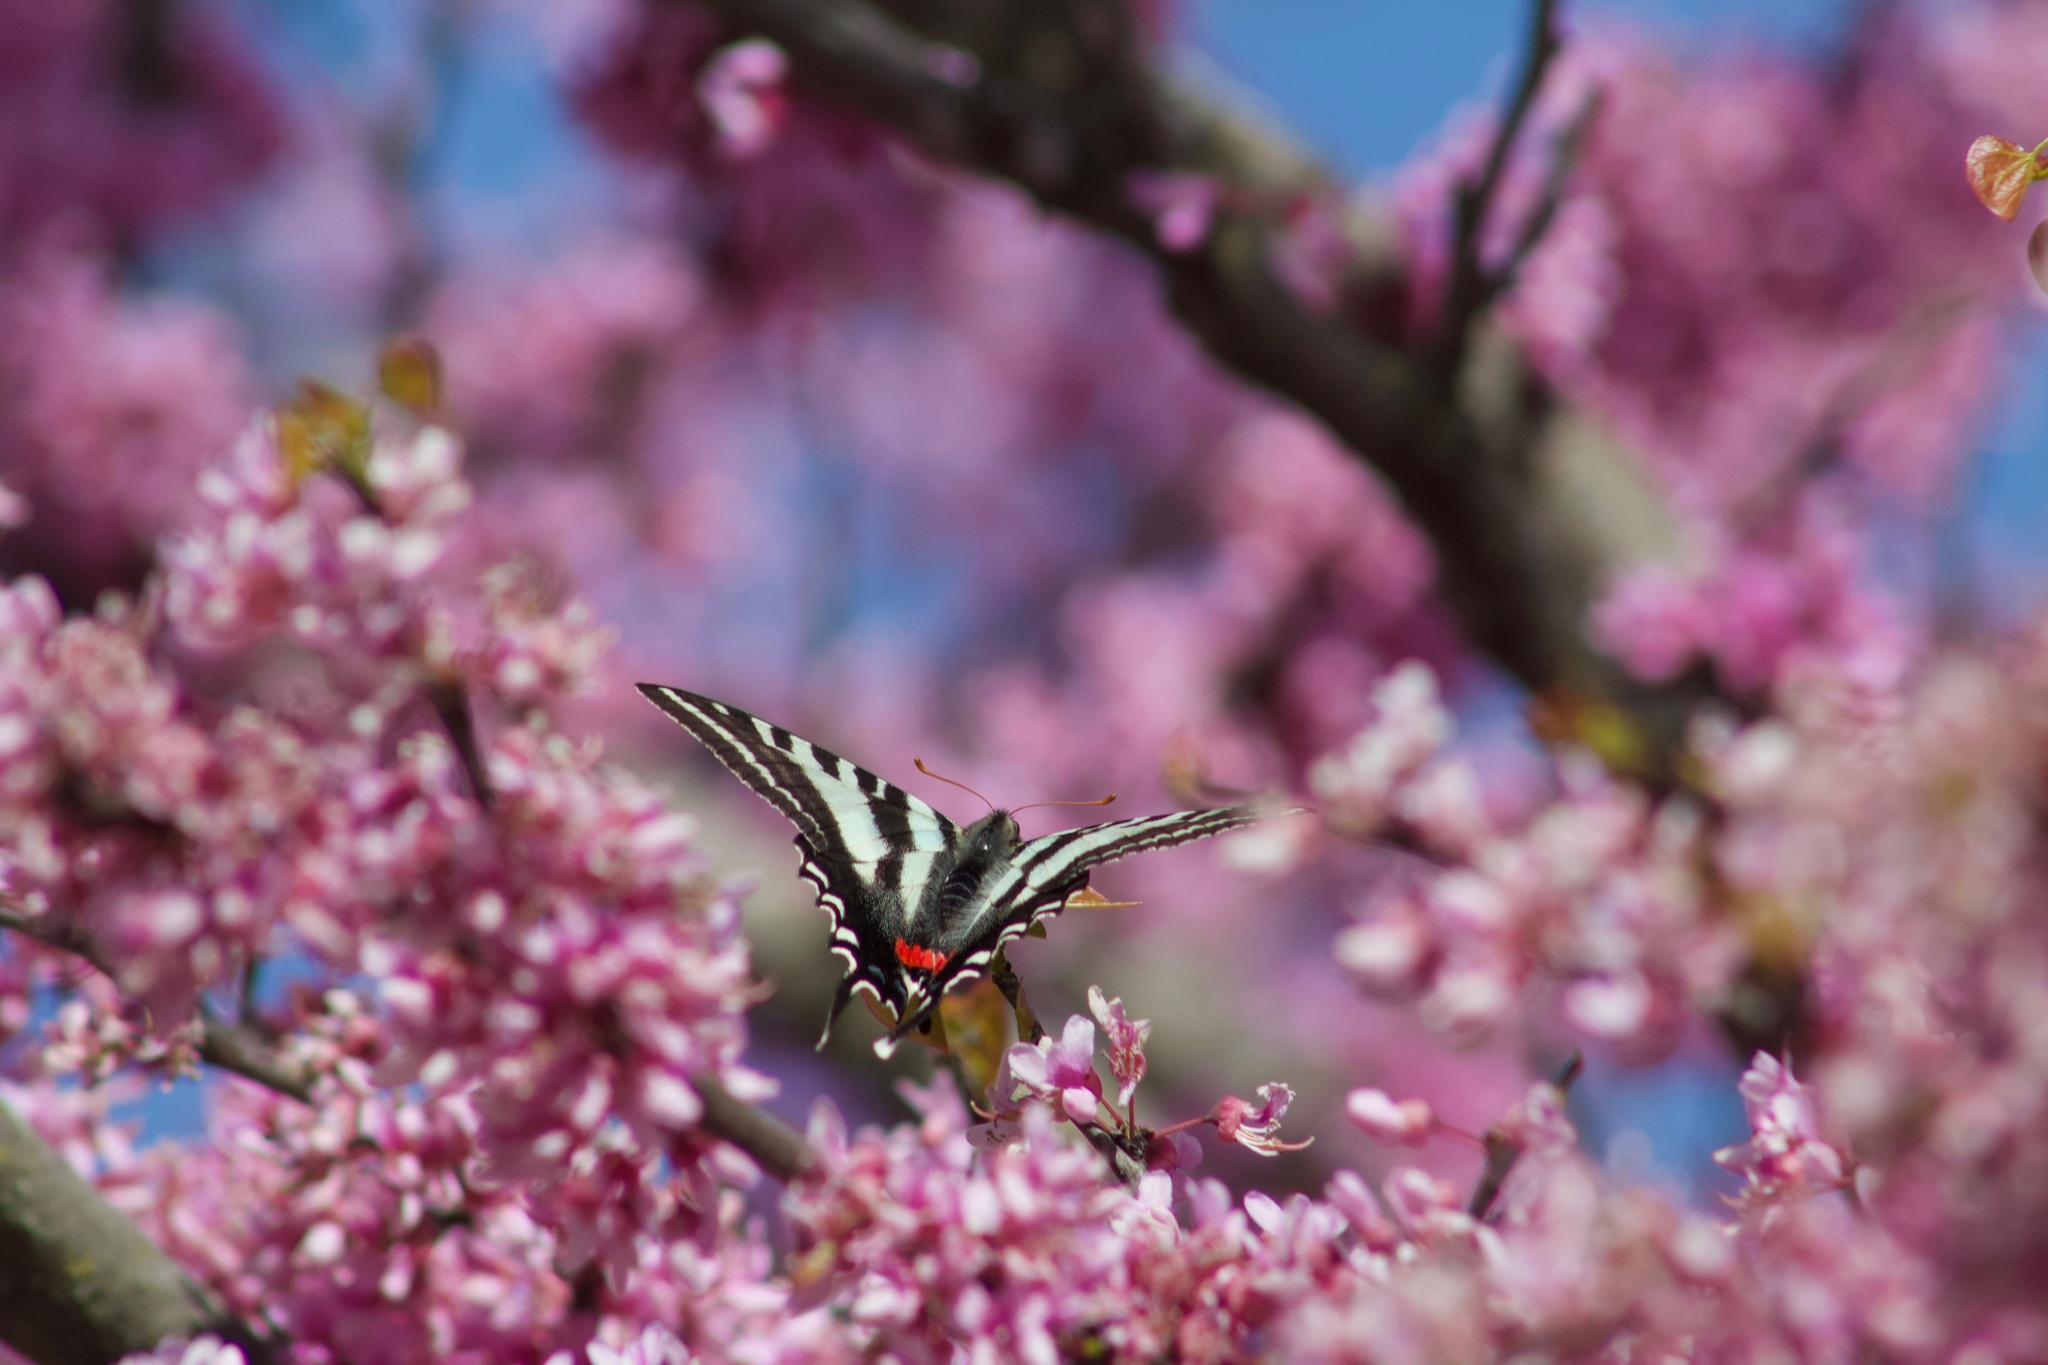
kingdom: Animalia
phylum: Arthropoda
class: Insecta
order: Lepidoptera
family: Papilionidae
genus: Protographium
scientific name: Protographium marcellus
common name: Zebra swallowtail
